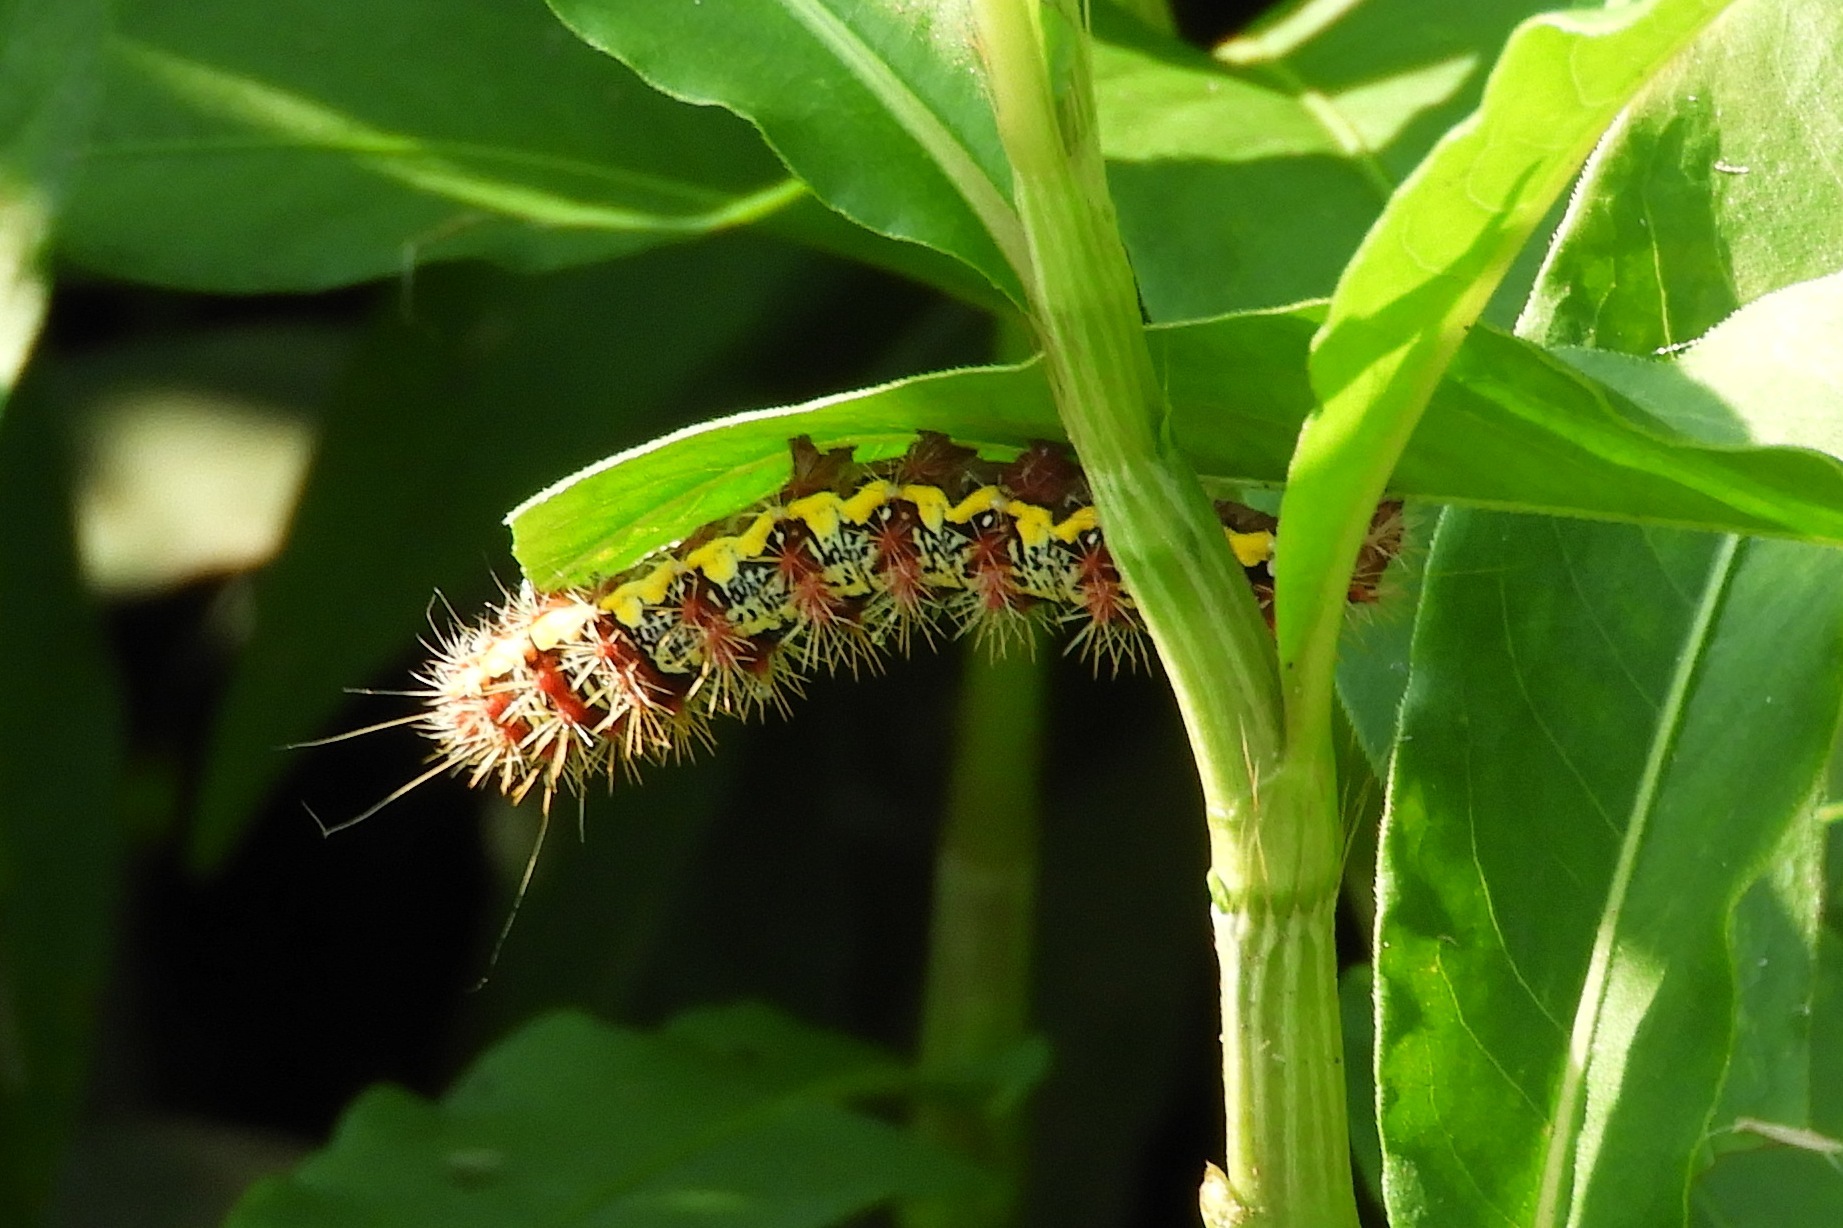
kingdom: Animalia
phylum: Arthropoda
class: Insecta
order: Lepidoptera
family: Noctuidae
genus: Acronicta
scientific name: Acronicta oblinita
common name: Smeared dagger
